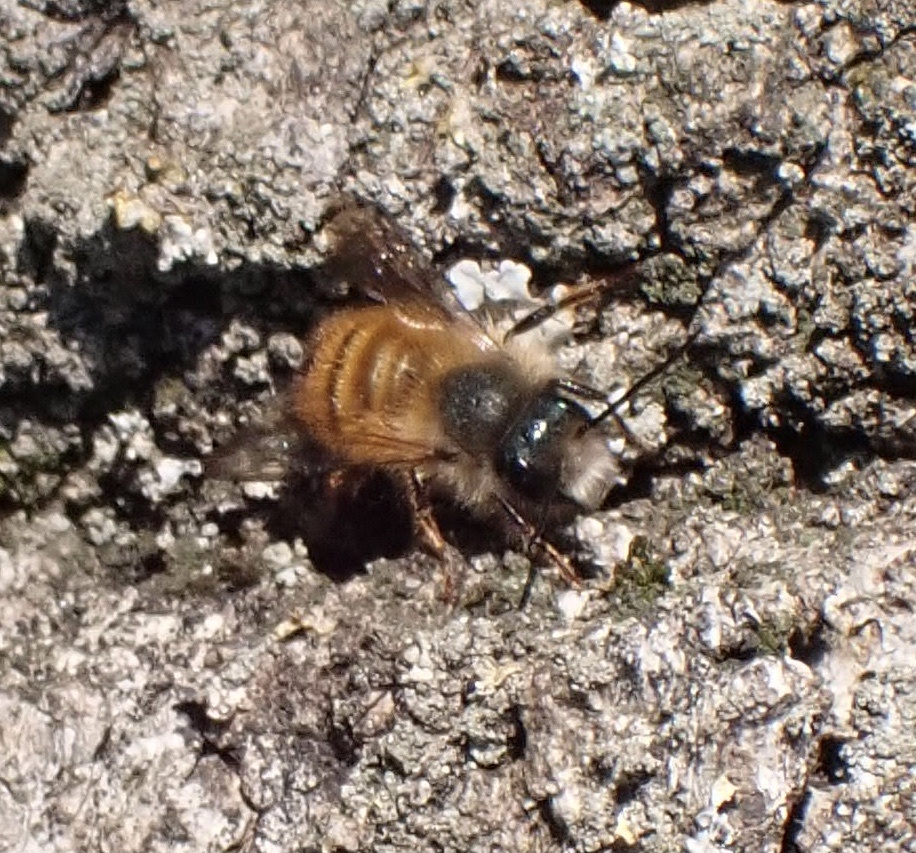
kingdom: Animalia
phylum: Arthropoda
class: Insecta
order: Hymenoptera
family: Megachilidae
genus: Osmia
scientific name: Osmia bicornis
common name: Red mason bee
